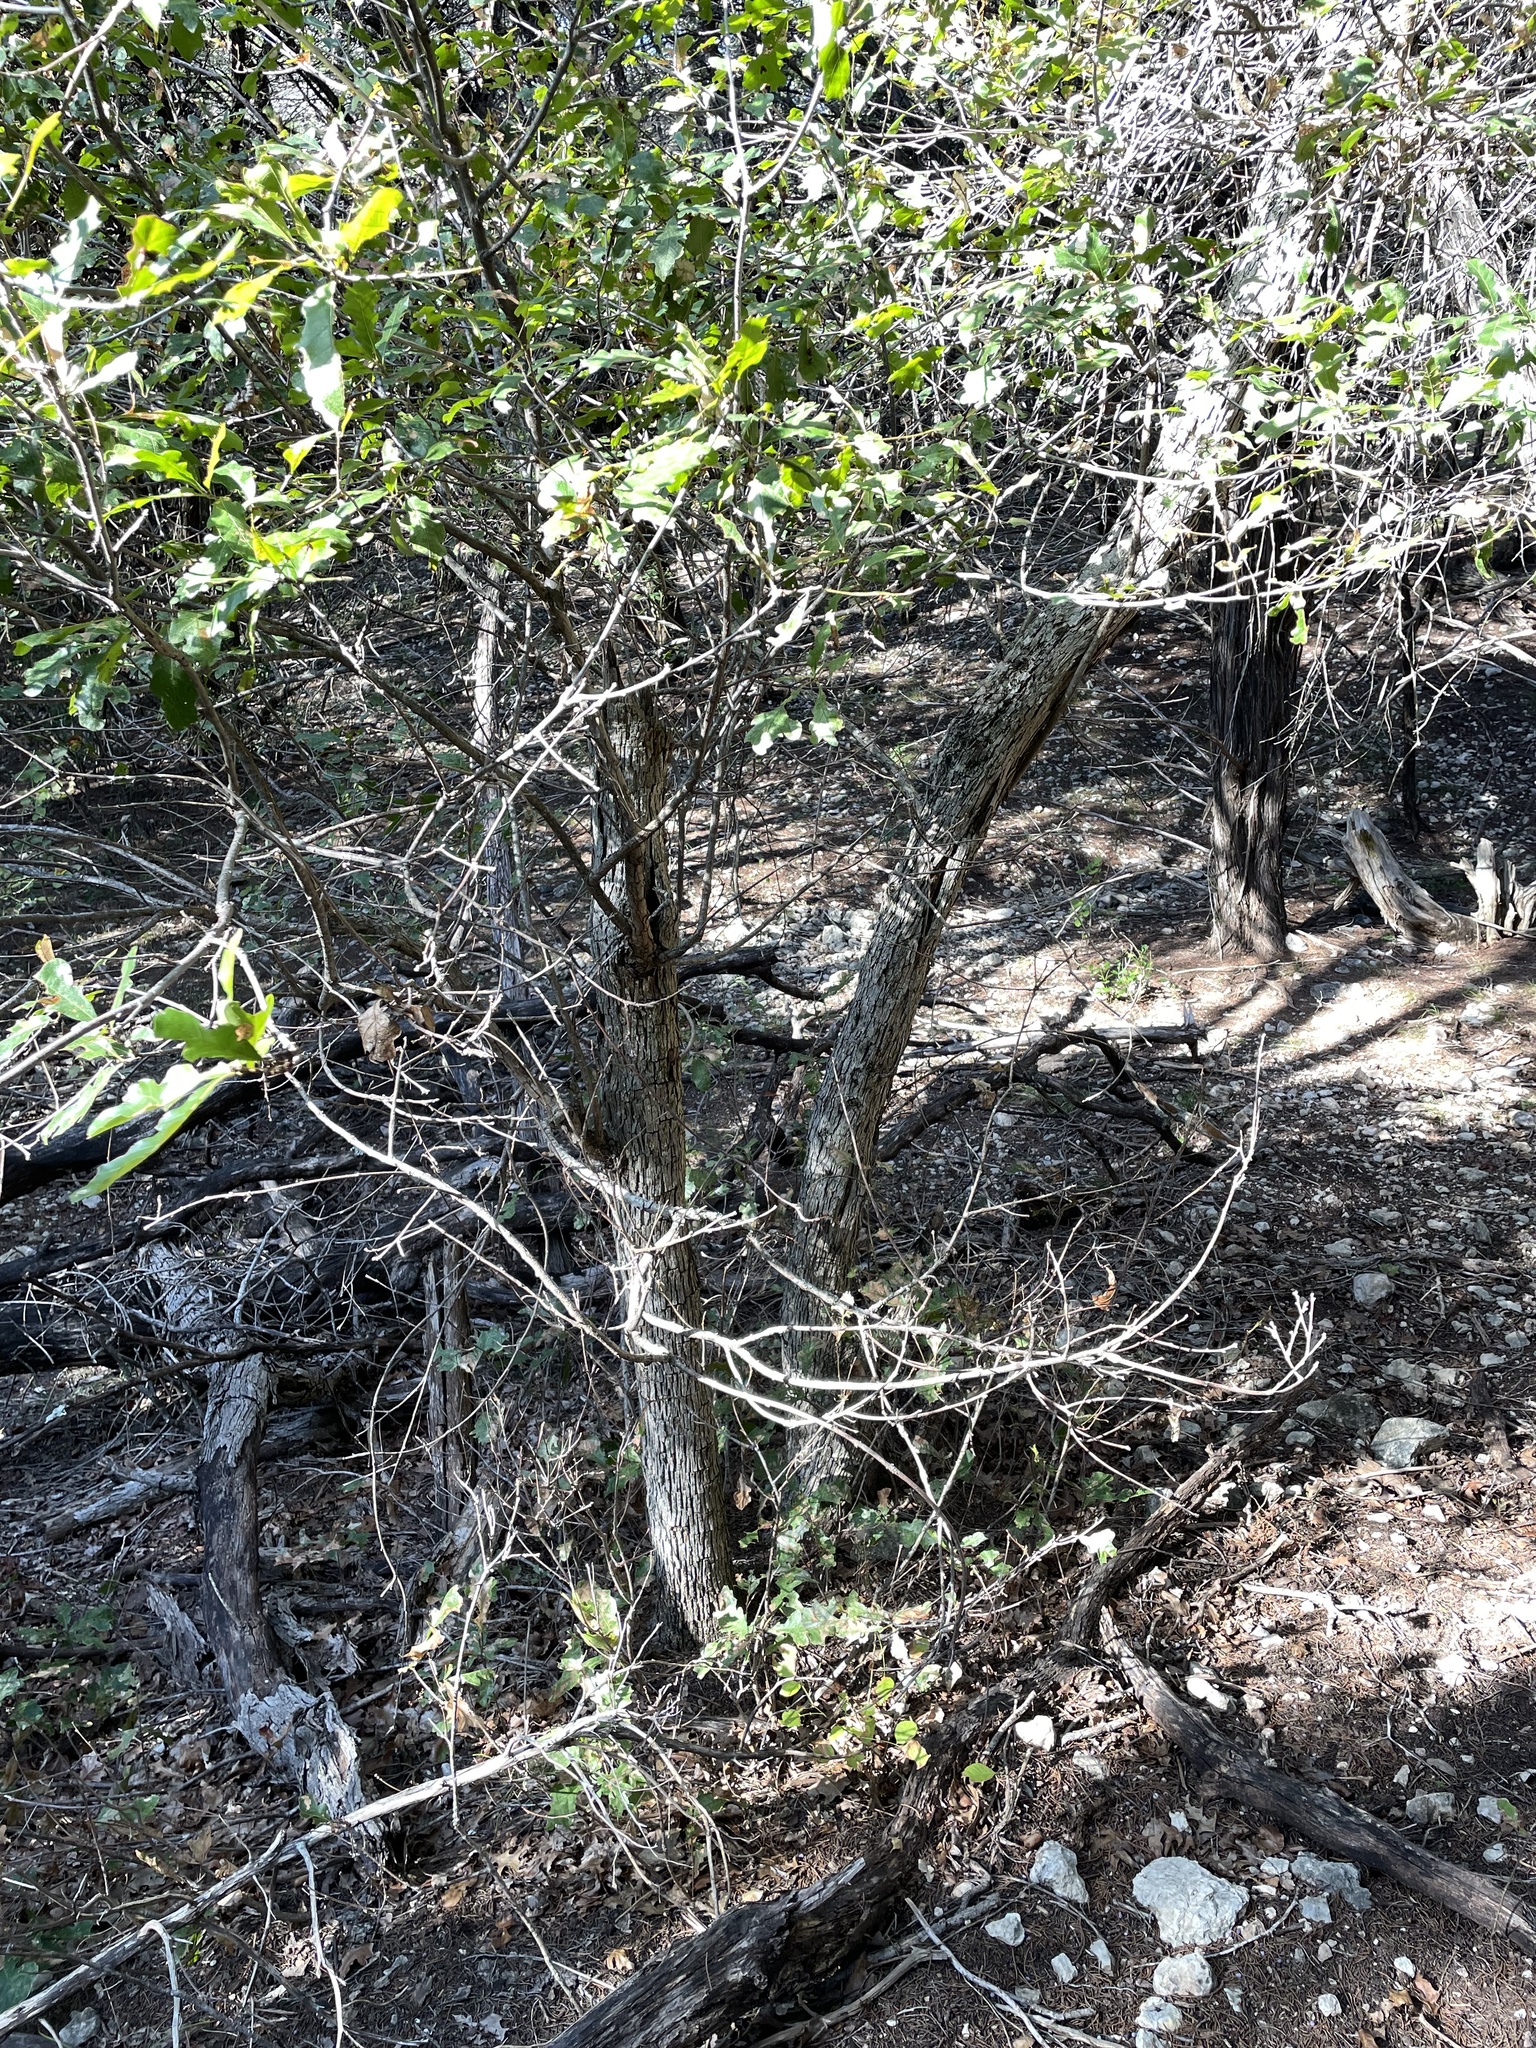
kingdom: Plantae
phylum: Tracheophyta
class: Magnoliopsida
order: Fagales
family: Fagaceae
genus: Quercus
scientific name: Quercus sinuata
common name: Durand oak
